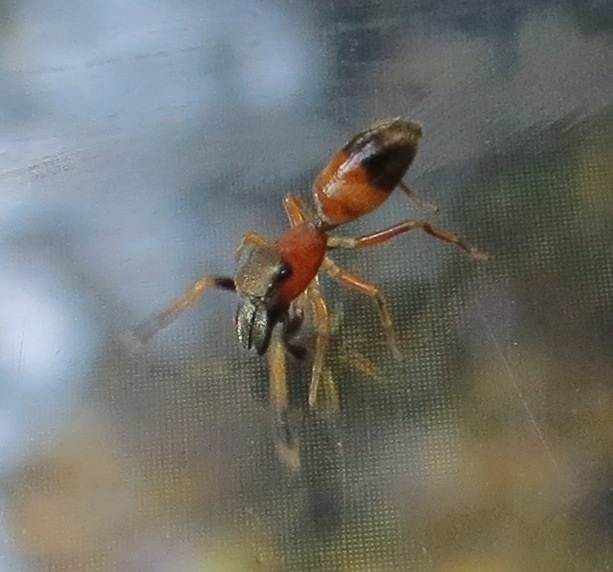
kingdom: Animalia
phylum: Arthropoda
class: Arachnida
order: Araneae
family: Salticidae
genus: Myrmarachne
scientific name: Myrmarachne formicaria
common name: Ant mimic jumping spider
